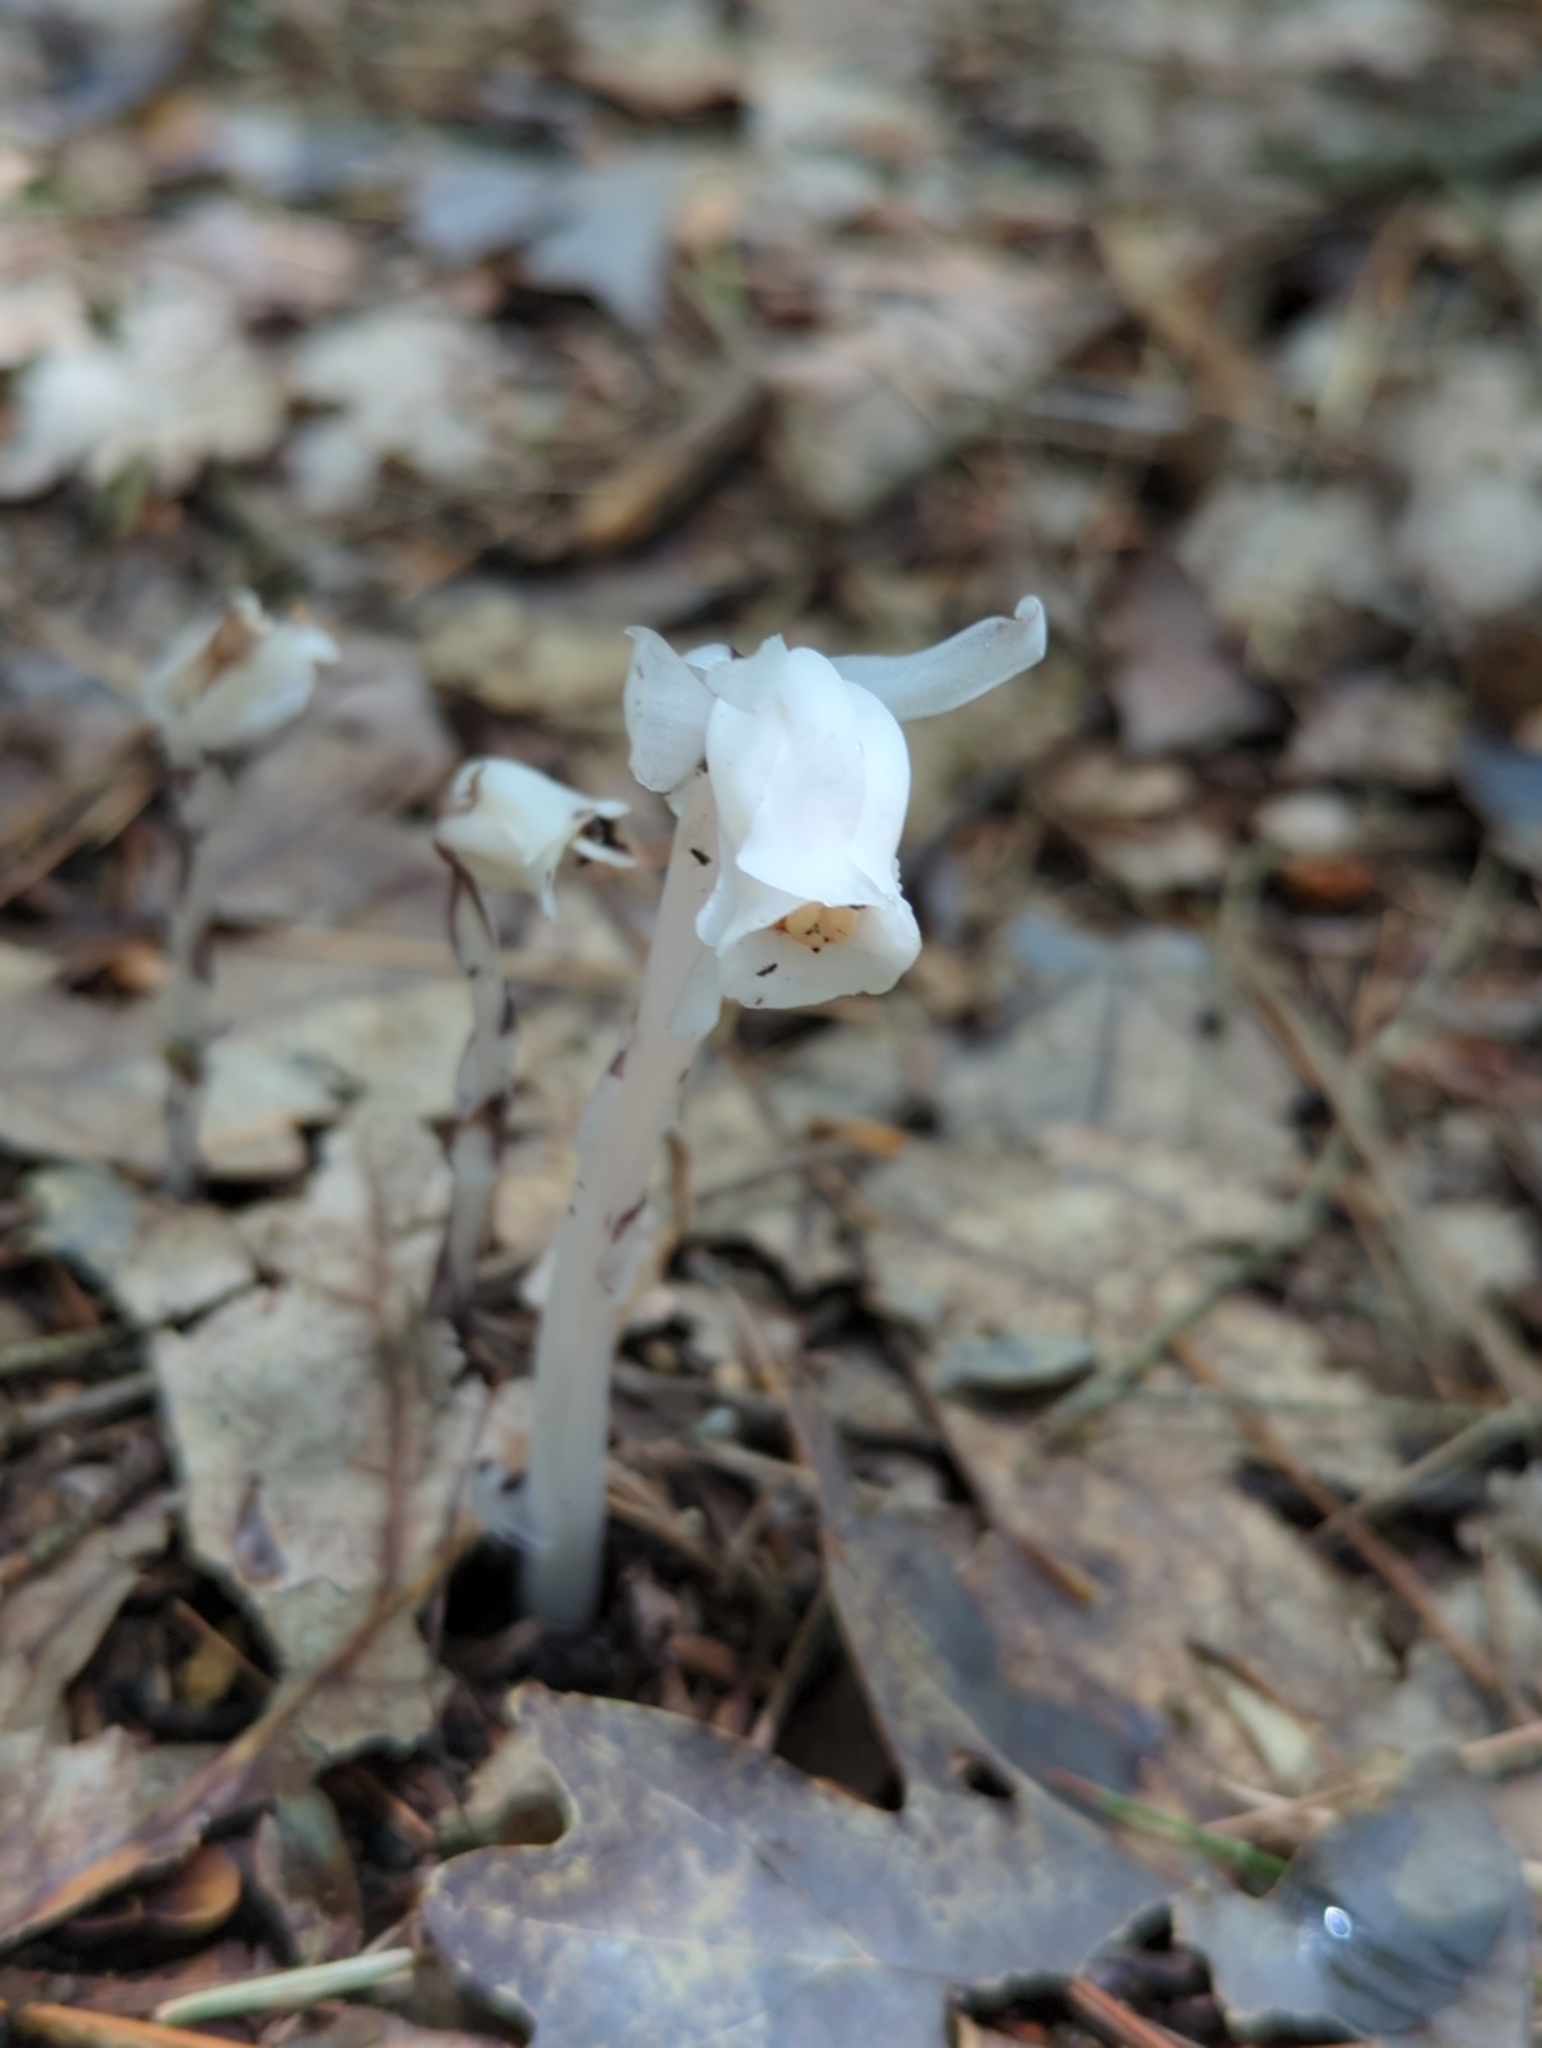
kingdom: Plantae
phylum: Tracheophyta
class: Magnoliopsida
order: Ericales
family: Ericaceae
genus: Monotropa
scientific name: Monotropa uniflora
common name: Convulsion root
